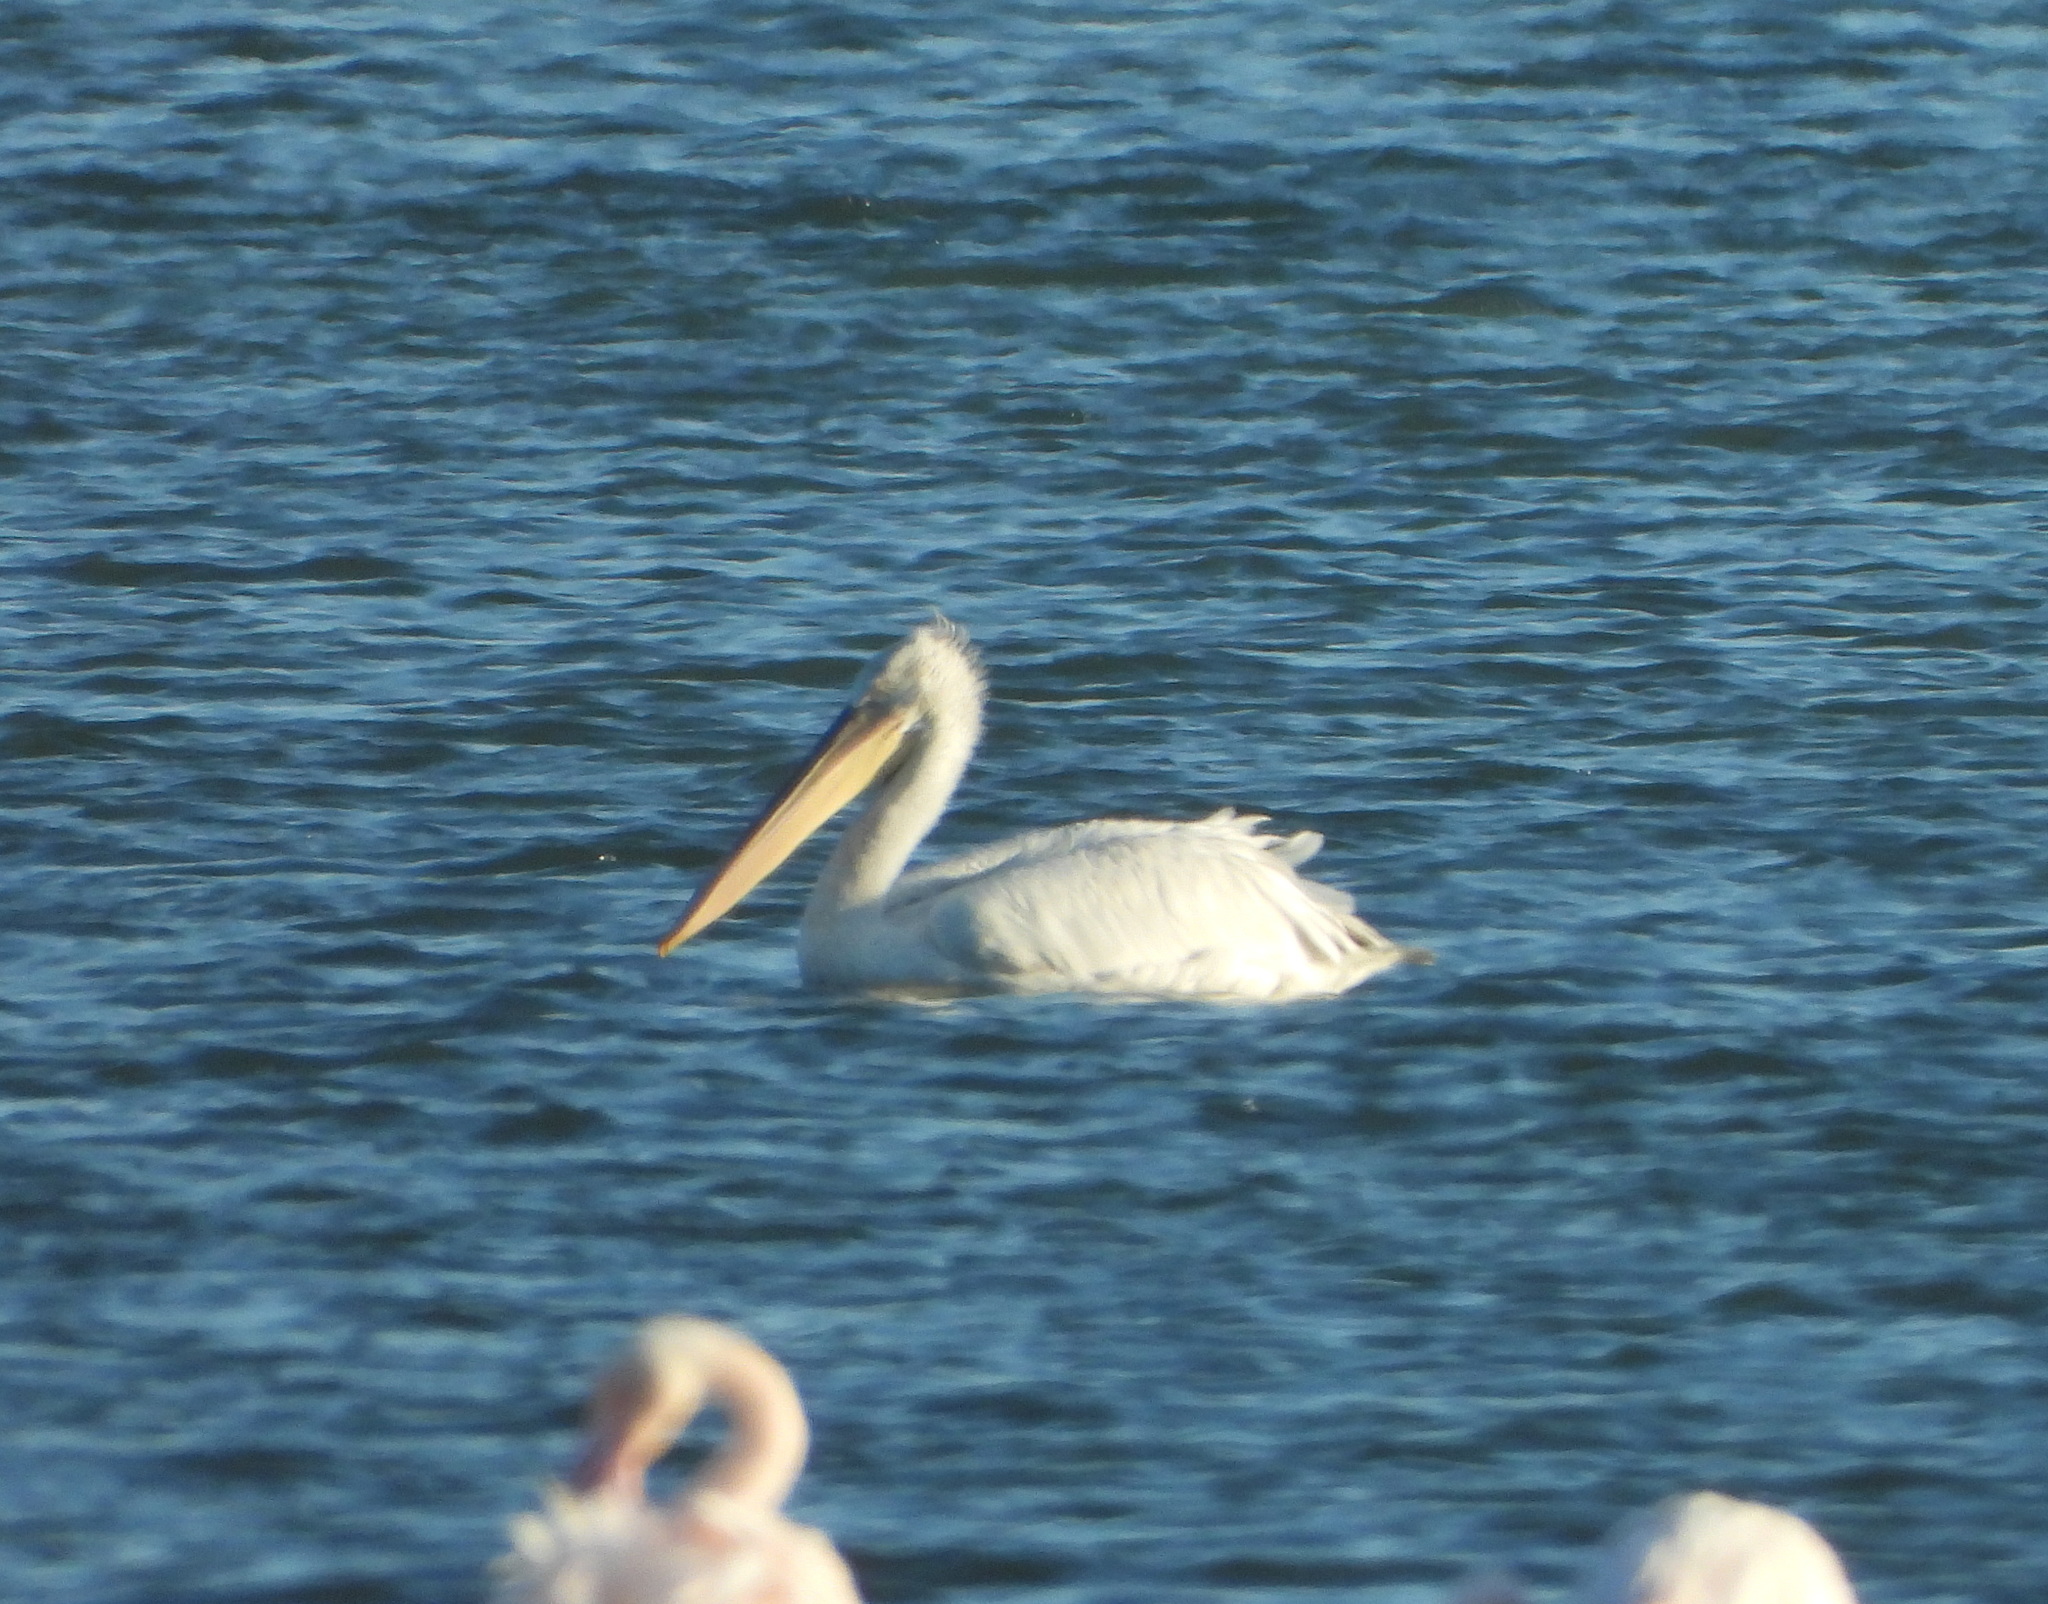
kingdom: Animalia
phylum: Chordata
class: Aves
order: Pelecaniformes
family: Pelecanidae
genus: Pelecanus
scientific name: Pelecanus crispus
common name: Dalmatian pelican
